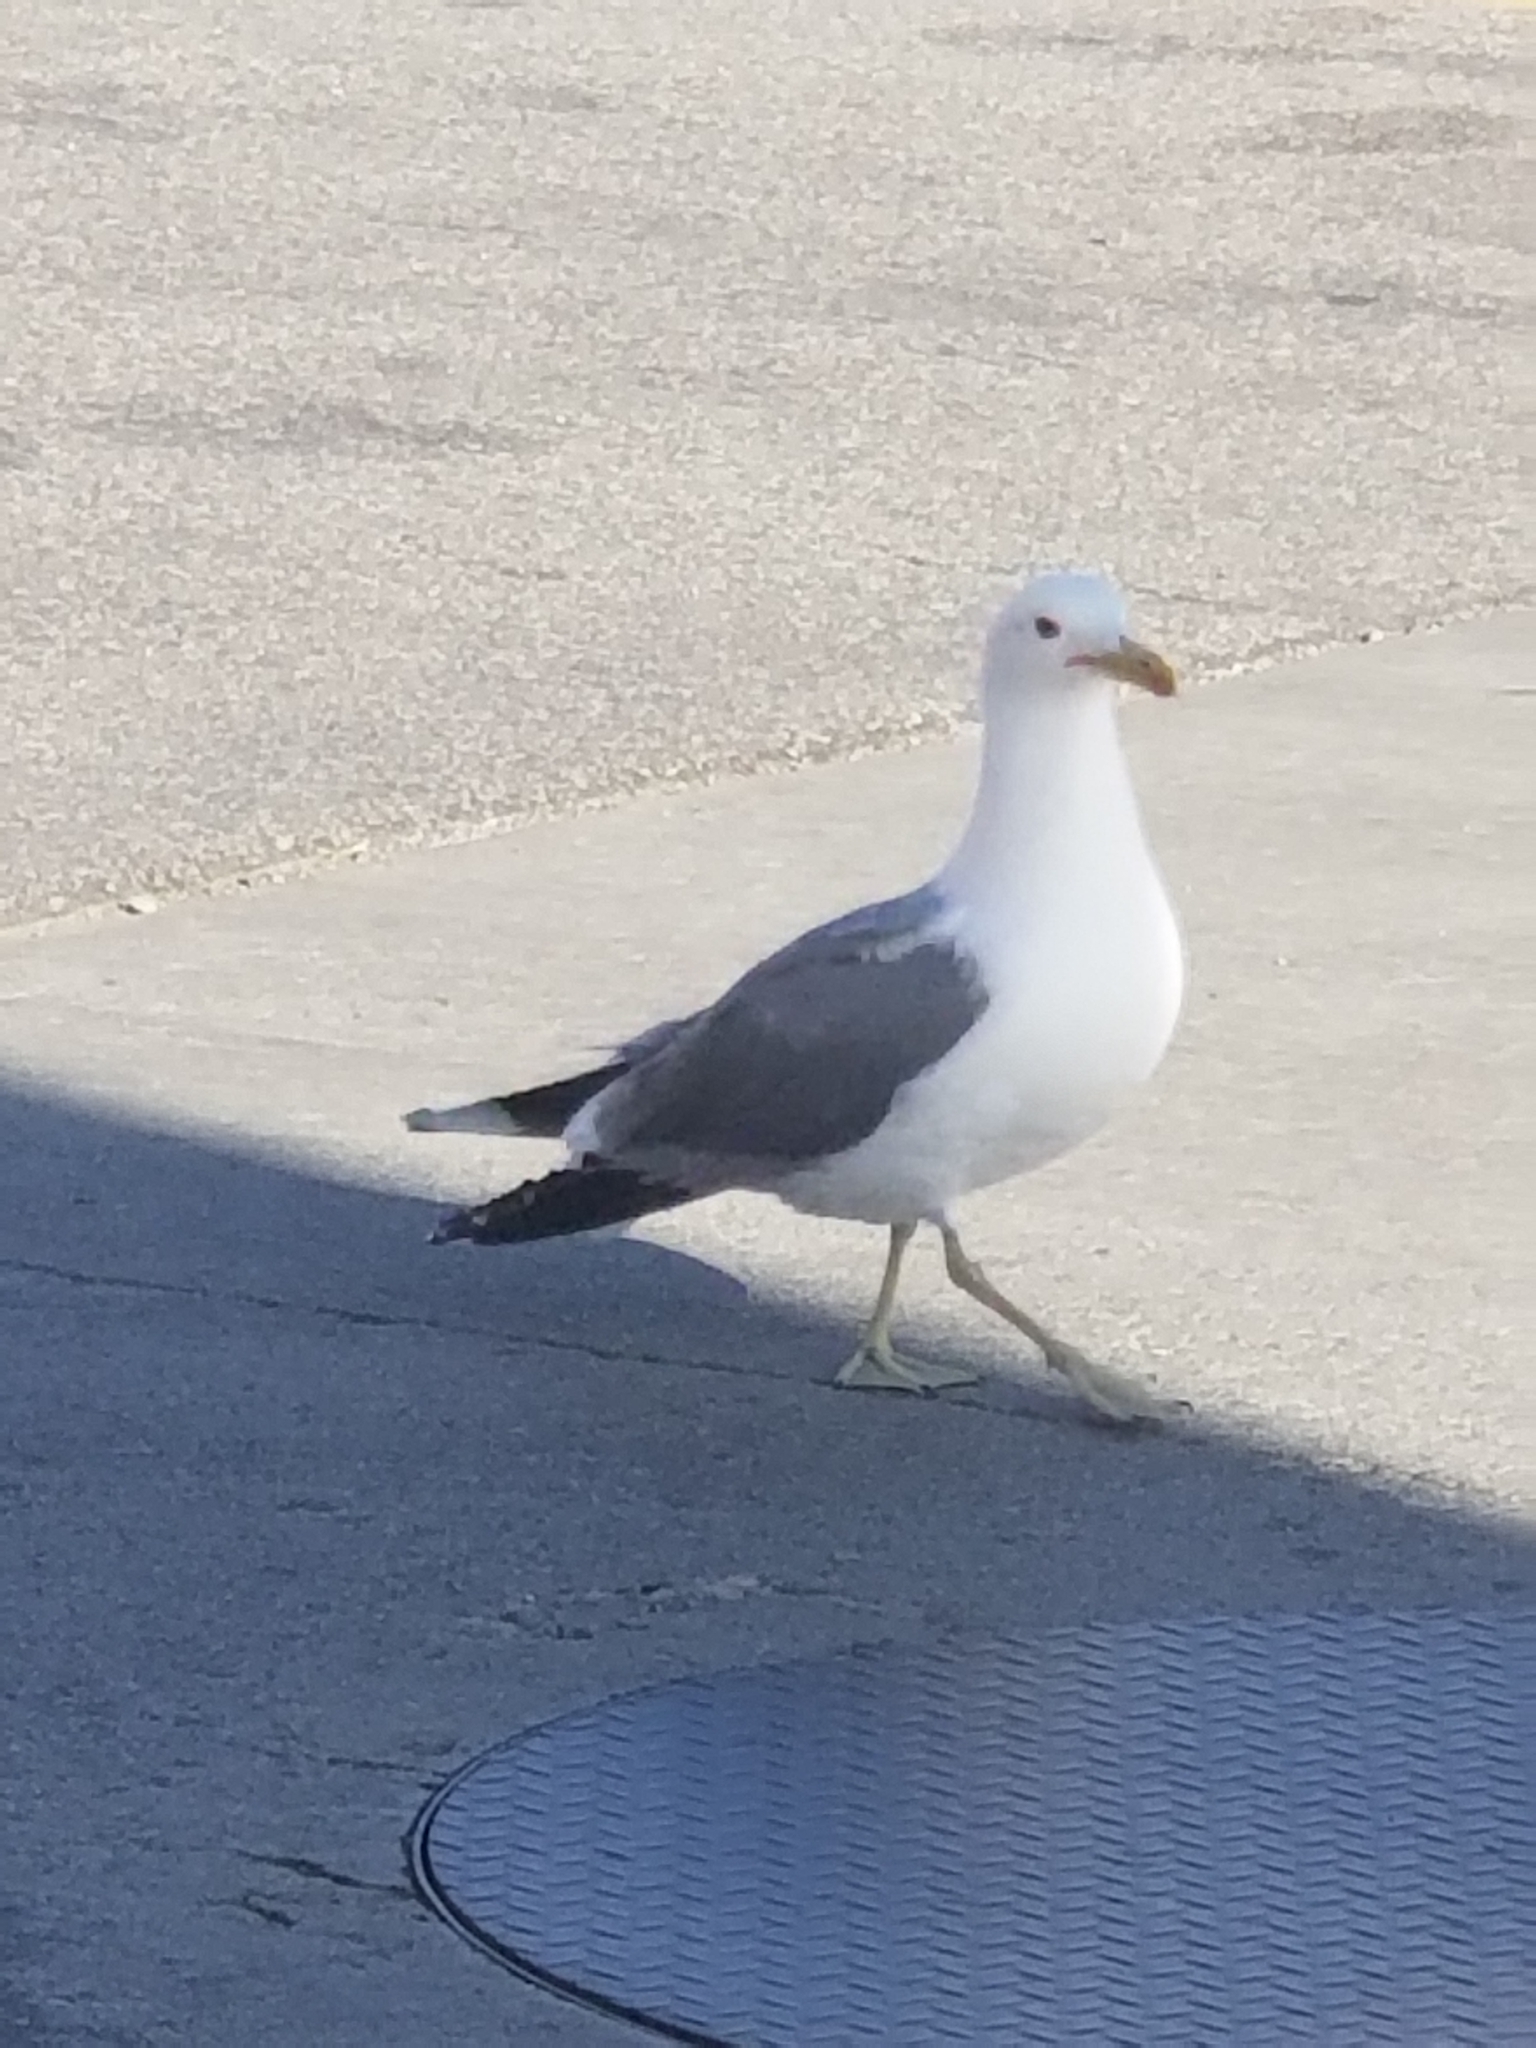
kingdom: Animalia
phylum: Chordata
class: Aves
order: Charadriiformes
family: Laridae
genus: Larus
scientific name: Larus californicus
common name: California gull
